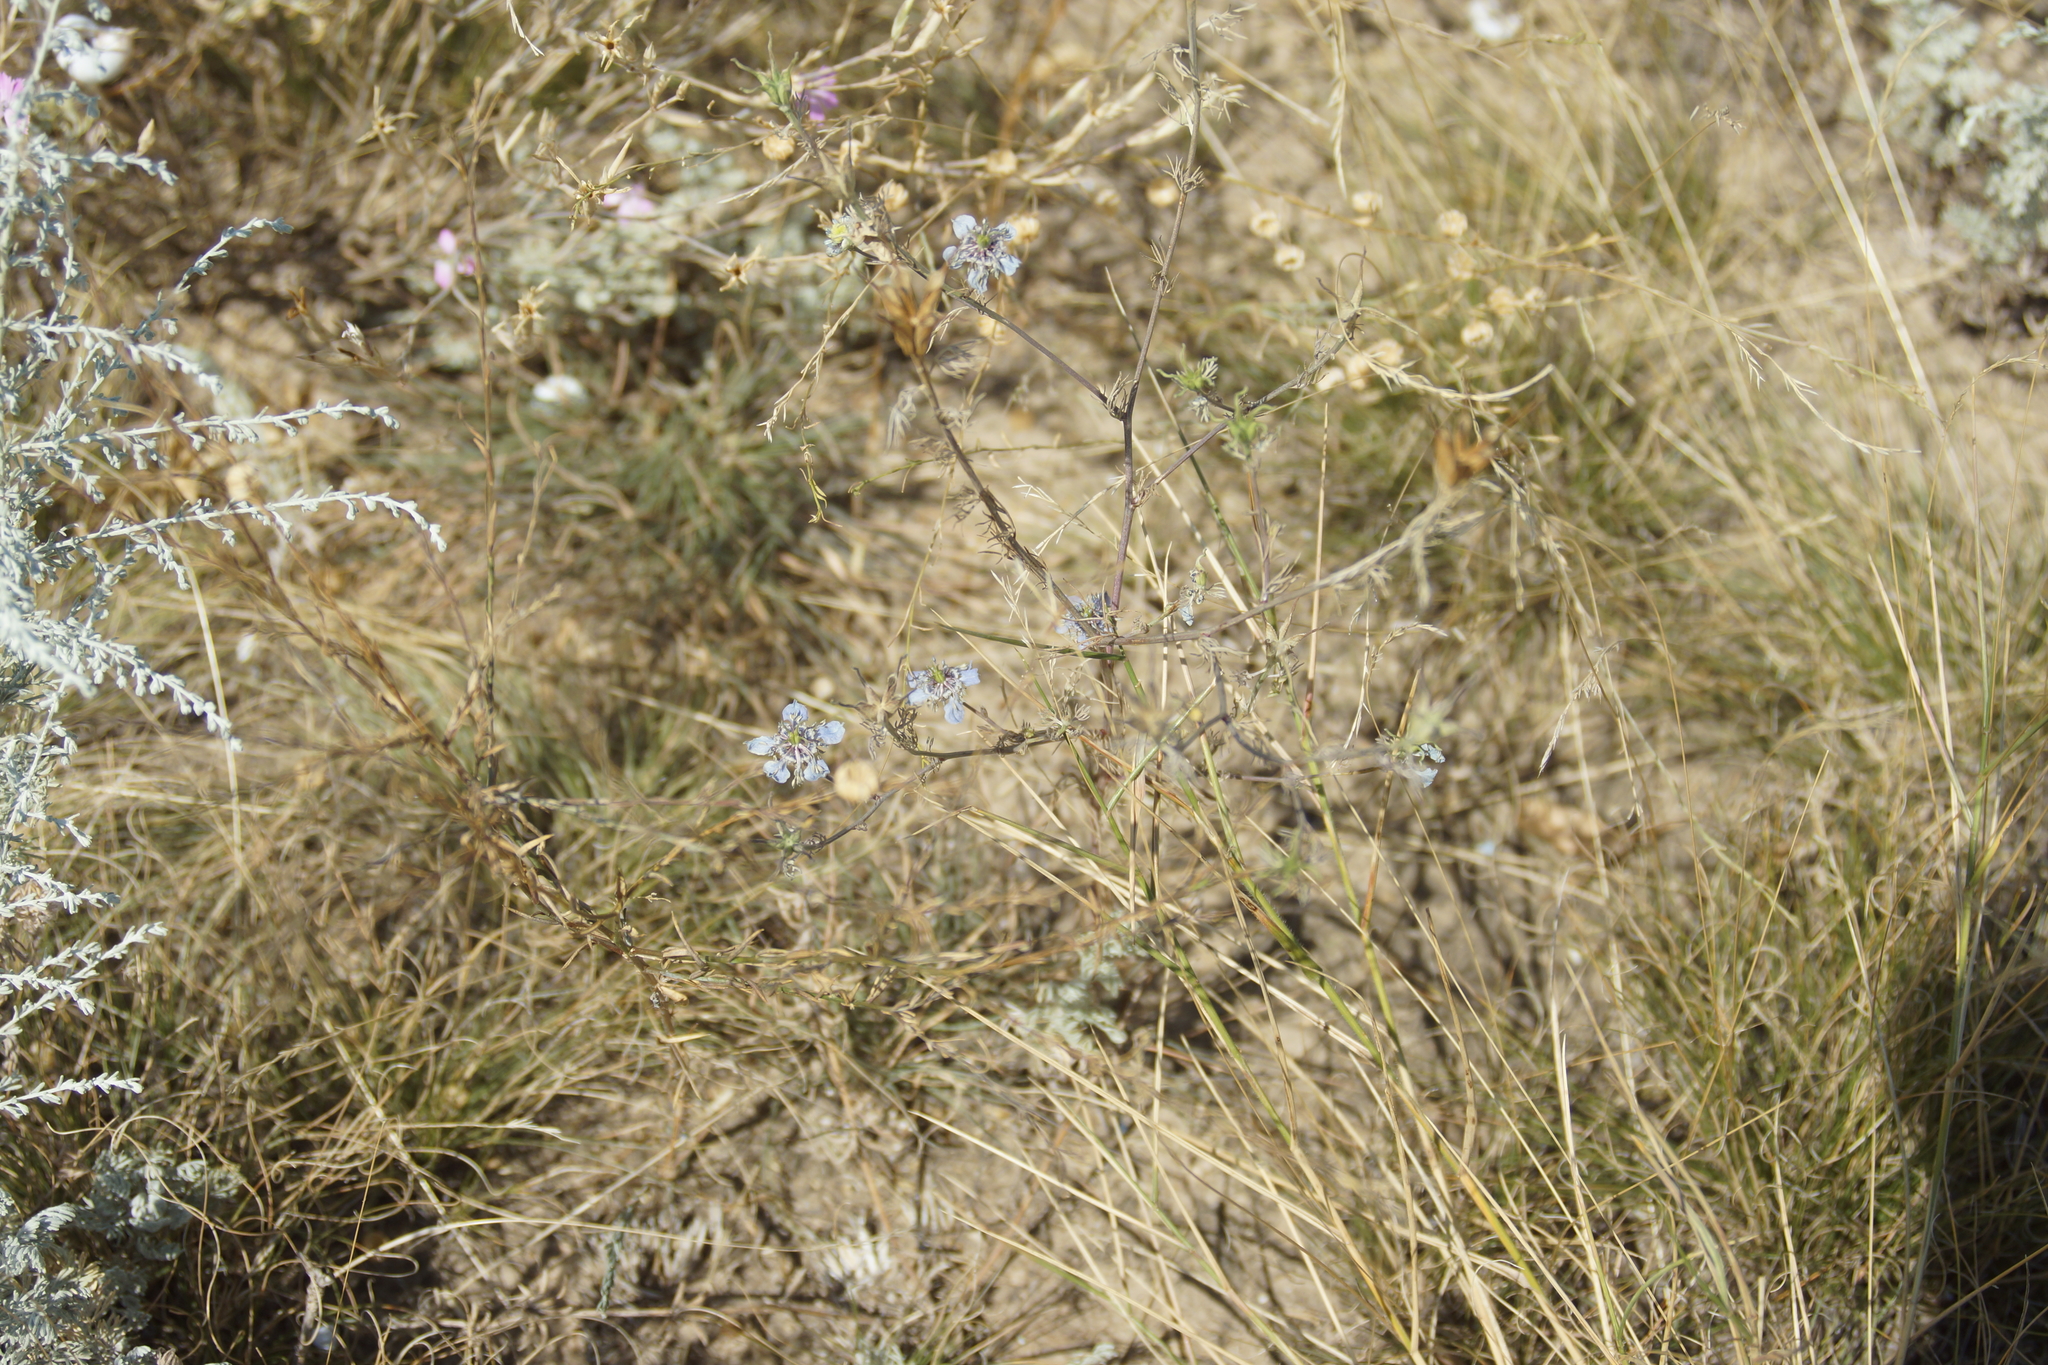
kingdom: Plantae
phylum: Tracheophyta
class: Magnoliopsida
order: Ranunculales
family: Ranunculaceae
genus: Nigella
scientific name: Nigella arvensis
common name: Wild fennel-flower
